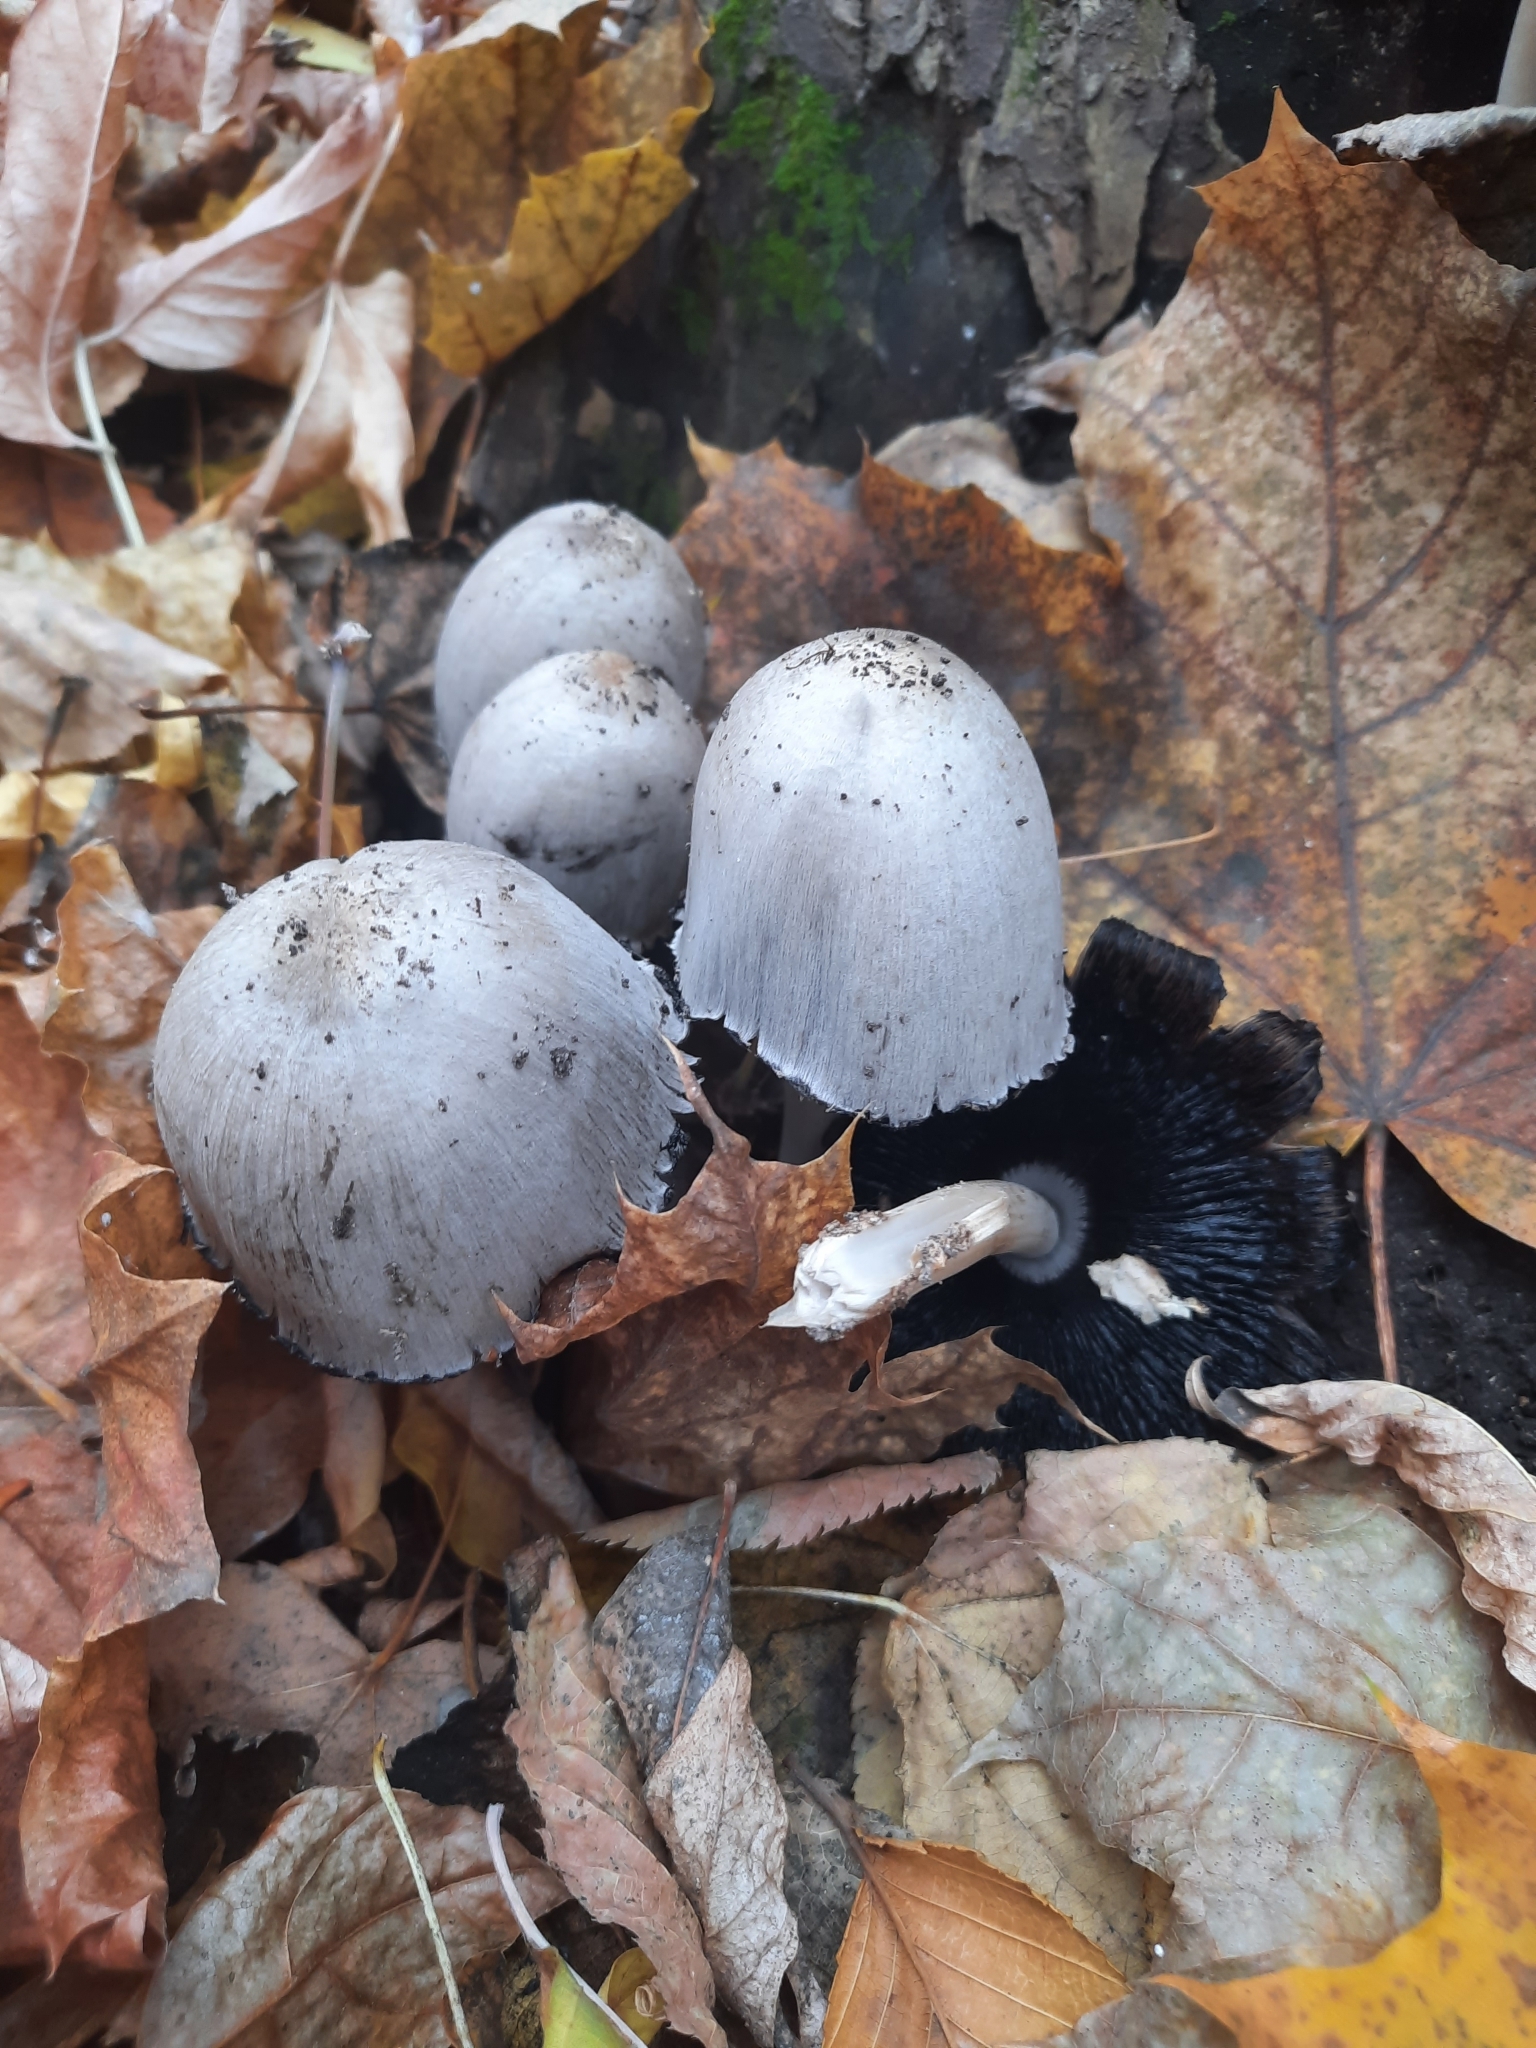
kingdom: Fungi
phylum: Basidiomycota
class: Agaricomycetes
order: Agaricales
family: Psathyrellaceae
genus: Coprinopsis
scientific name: Coprinopsis atramentaria
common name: Common ink-cap
